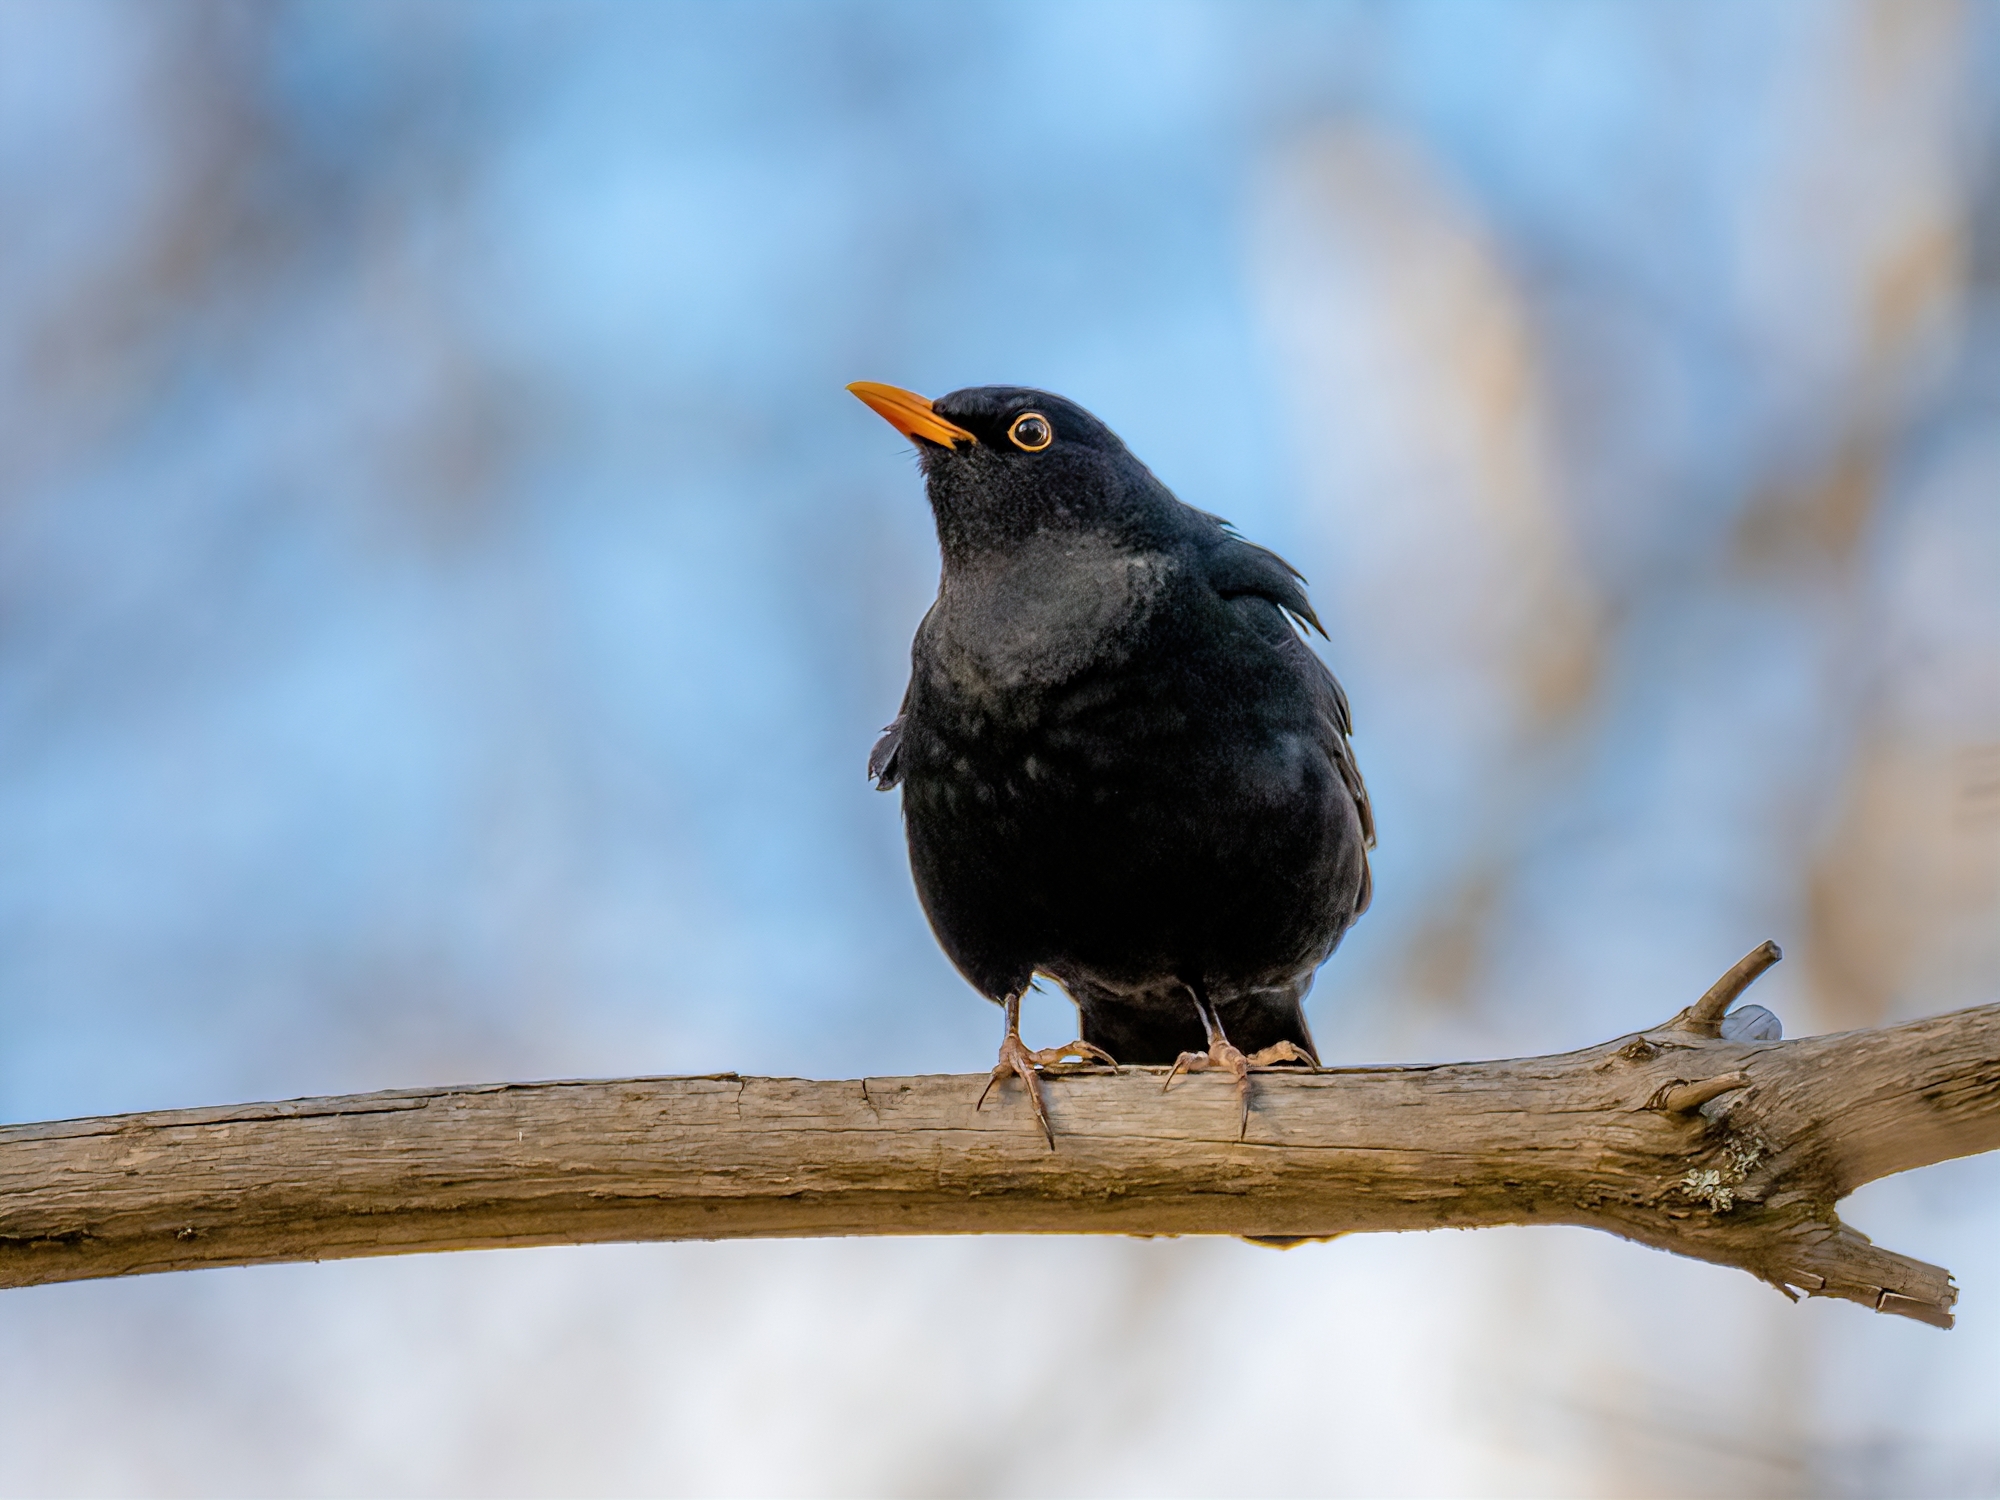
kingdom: Animalia
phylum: Chordata
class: Aves
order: Passeriformes
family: Turdidae
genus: Turdus
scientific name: Turdus merula
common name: Common blackbird
